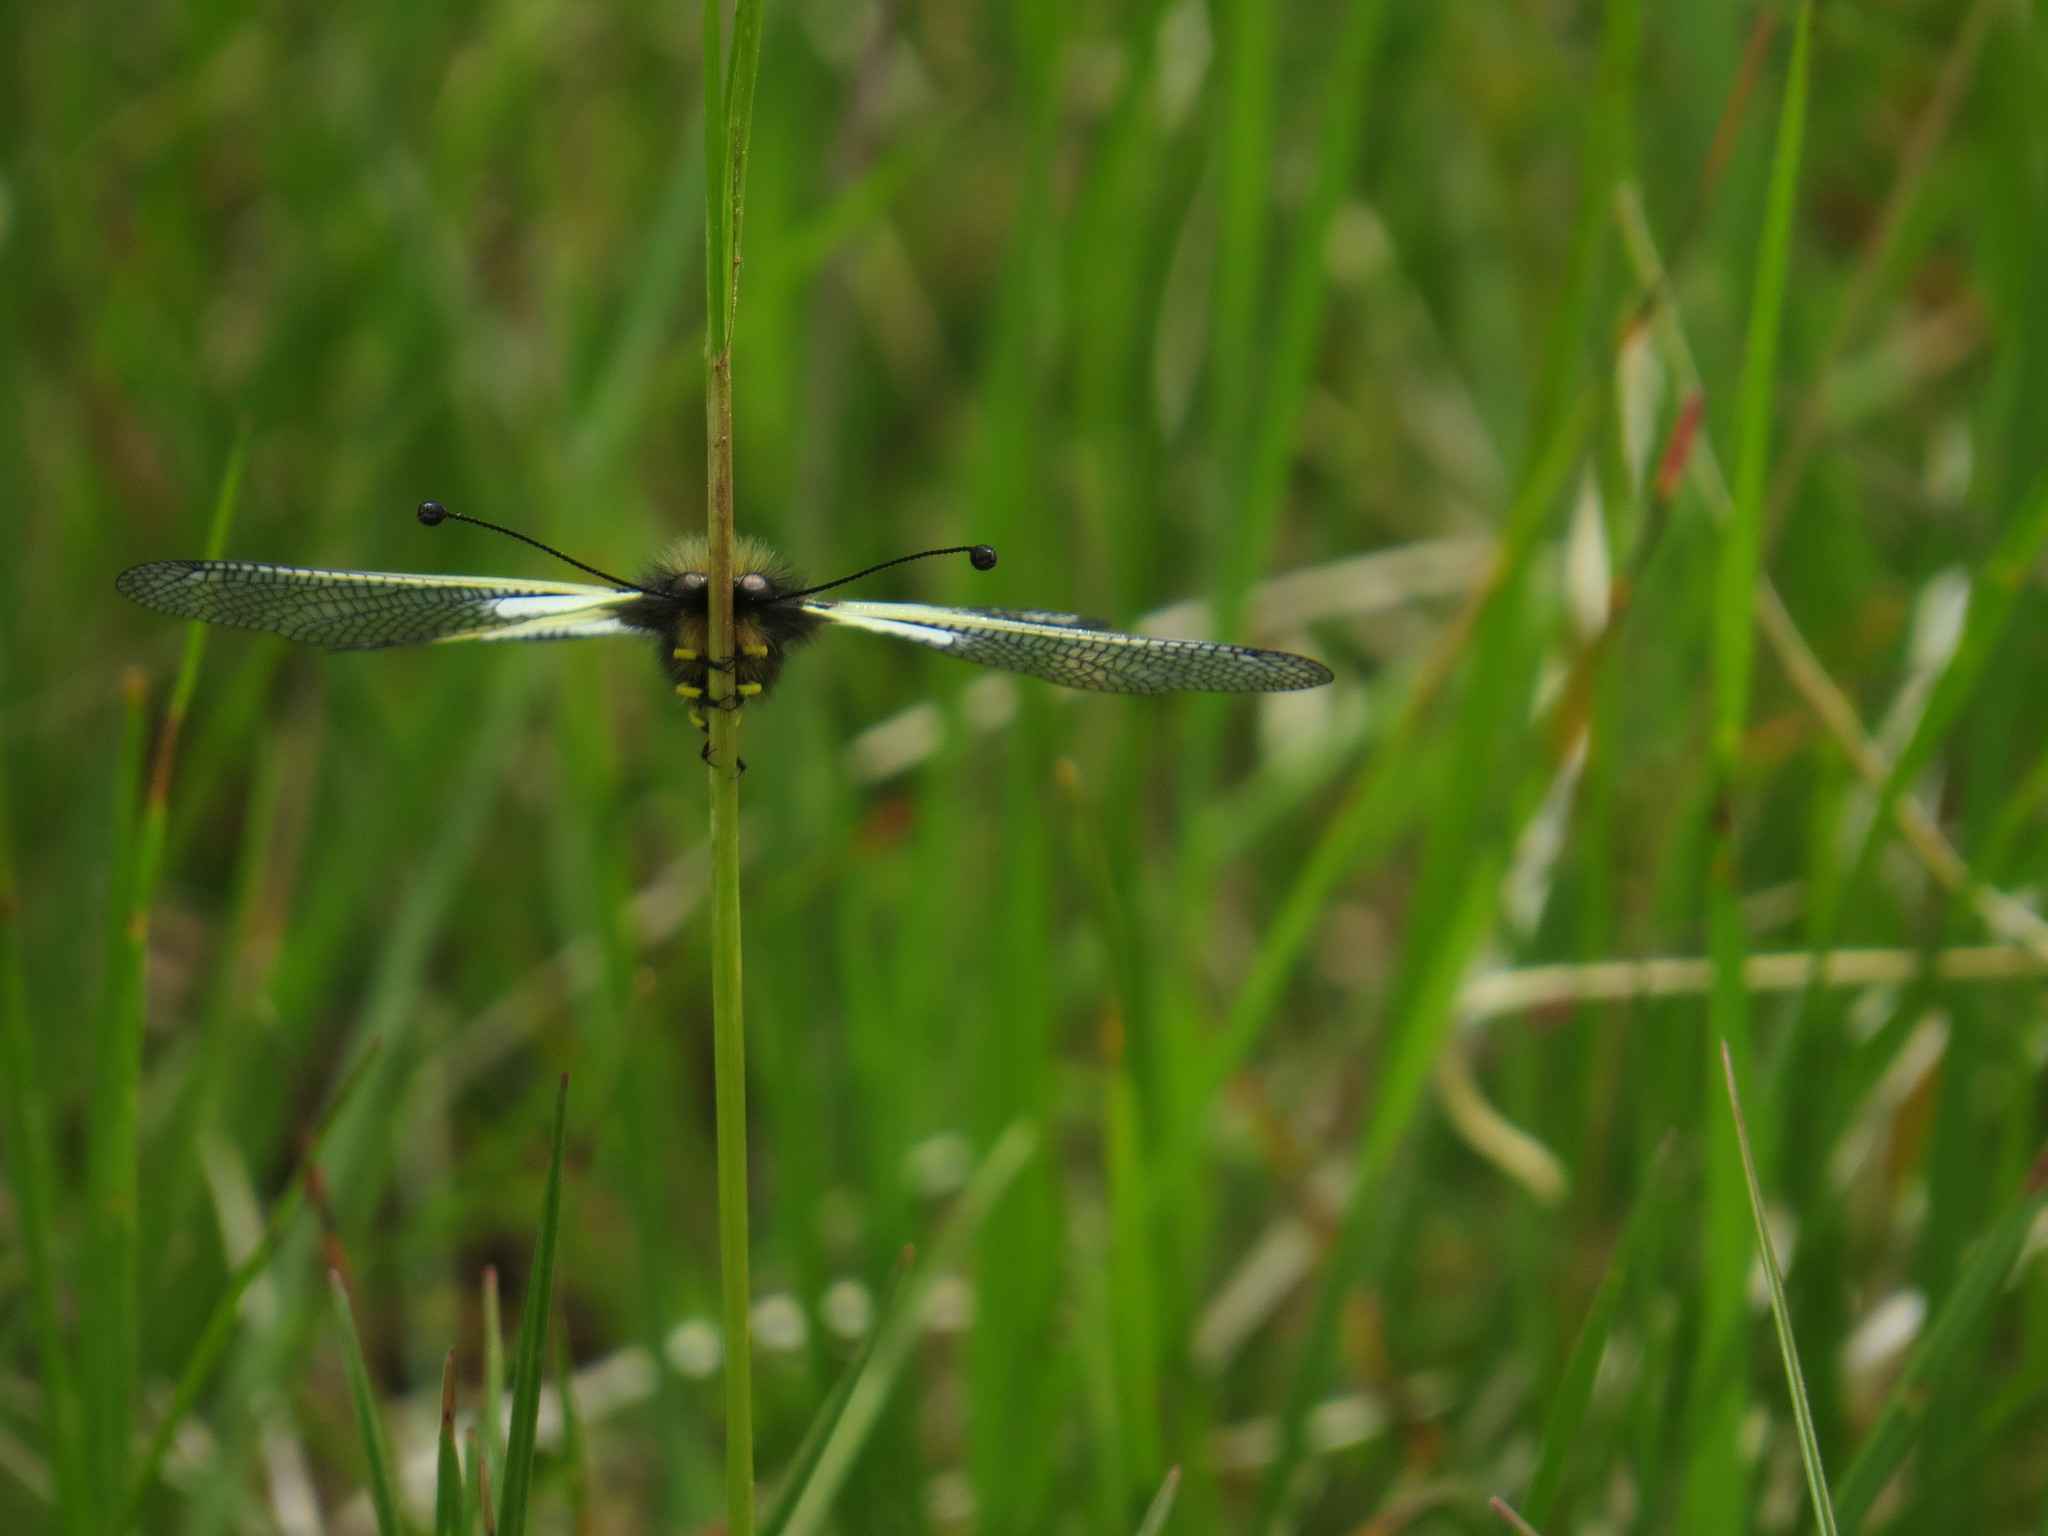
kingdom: Animalia
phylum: Arthropoda
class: Insecta
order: Neuroptera
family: Ascalaphidae
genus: Libelloides
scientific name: Libelloides coccajus
